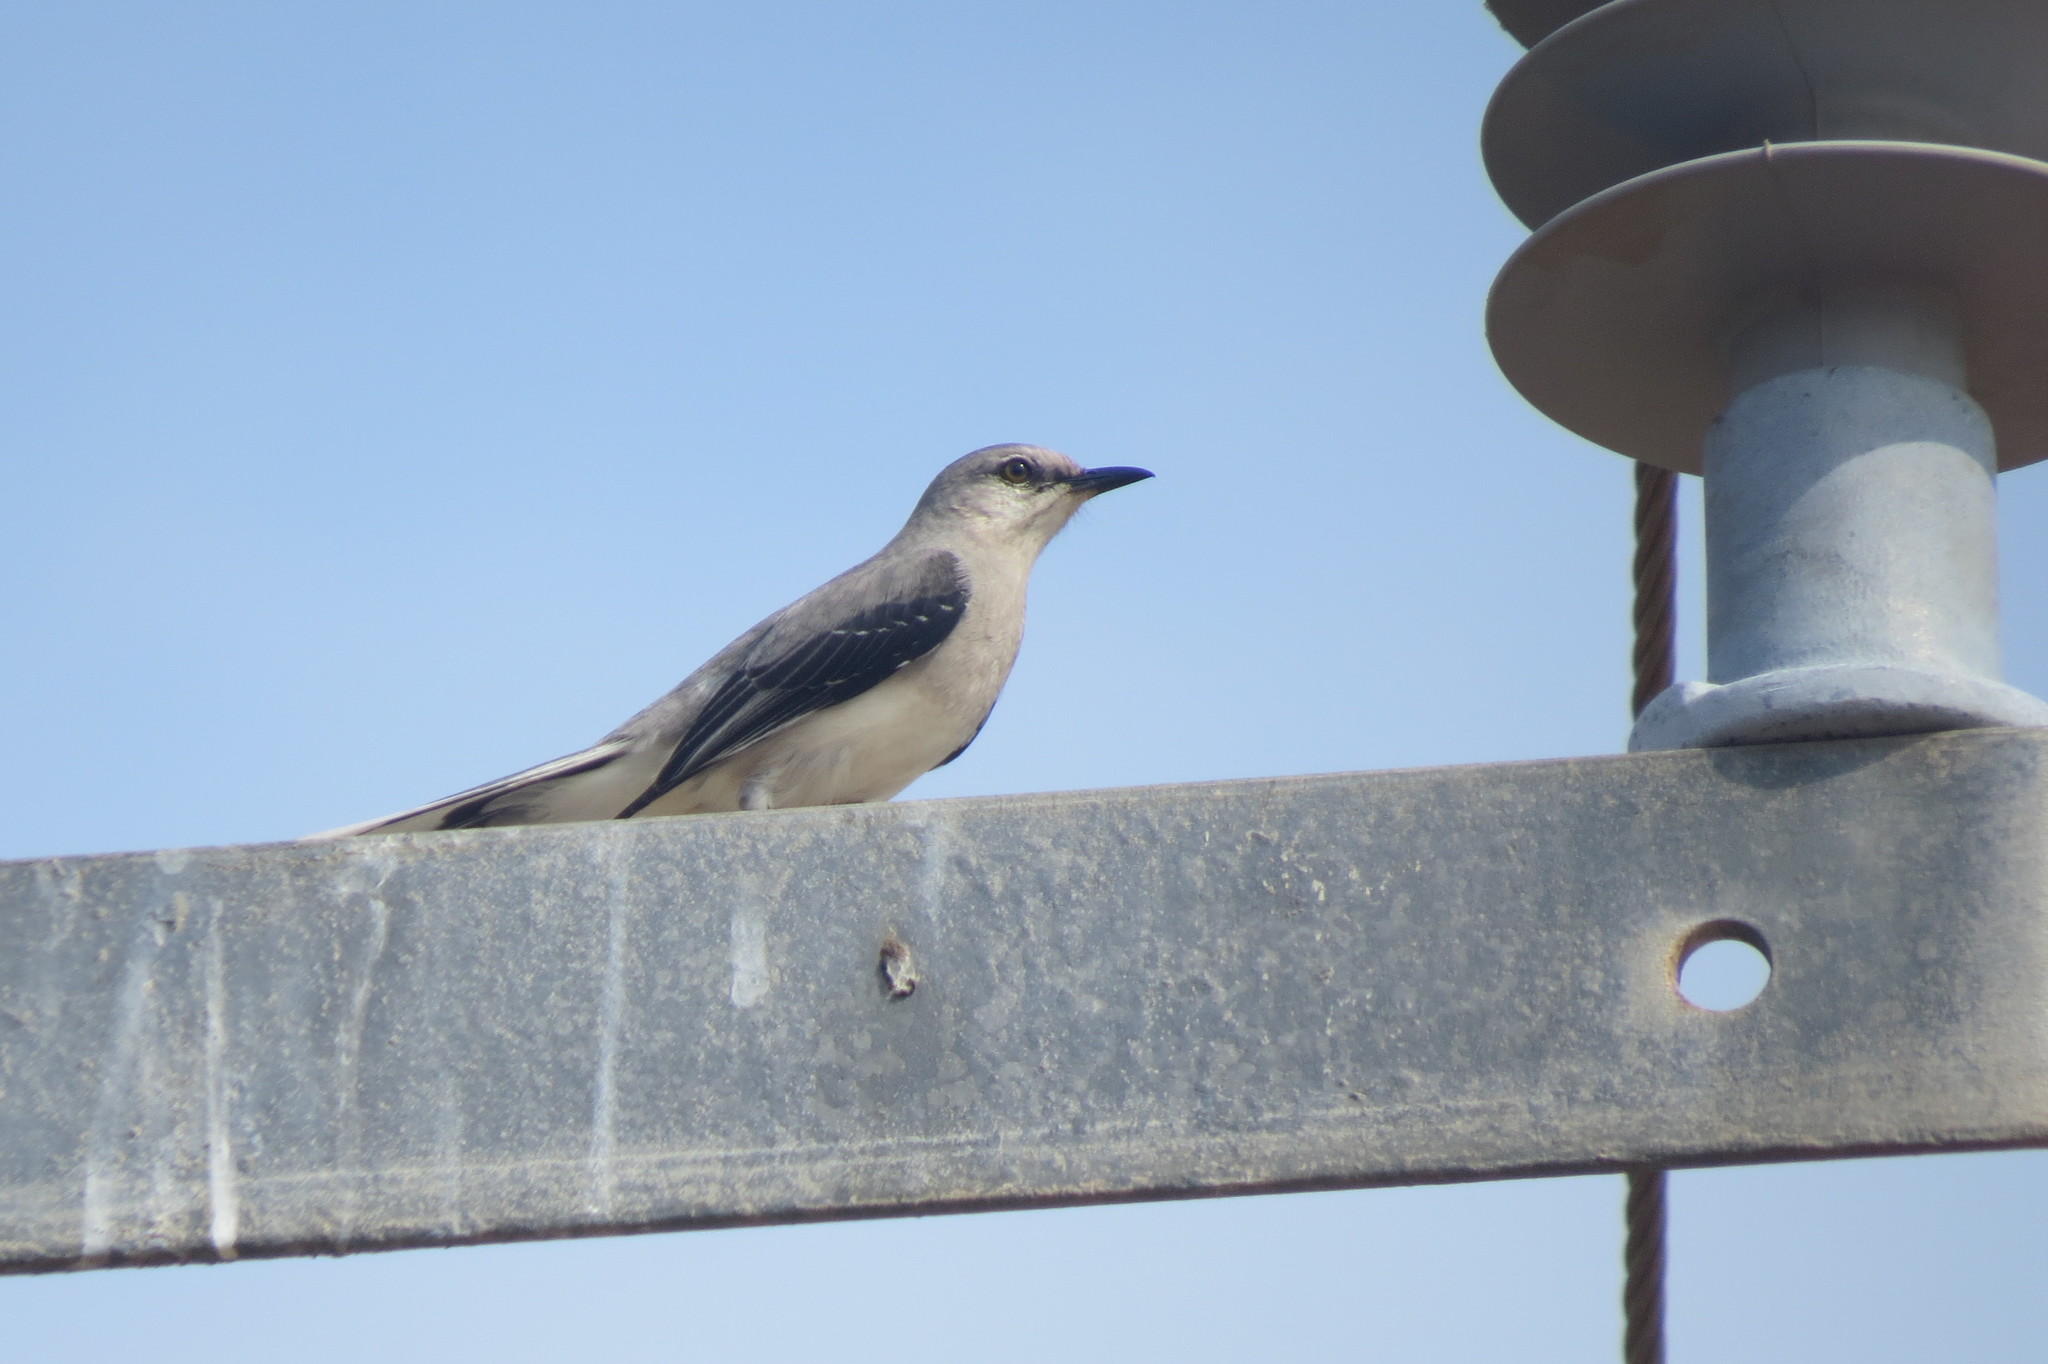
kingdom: Animalia
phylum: Chordata
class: Aves
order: Passeriformes
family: Mimidae
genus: Mimus
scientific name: Mimus gilvus
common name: Tropical mockingbird
